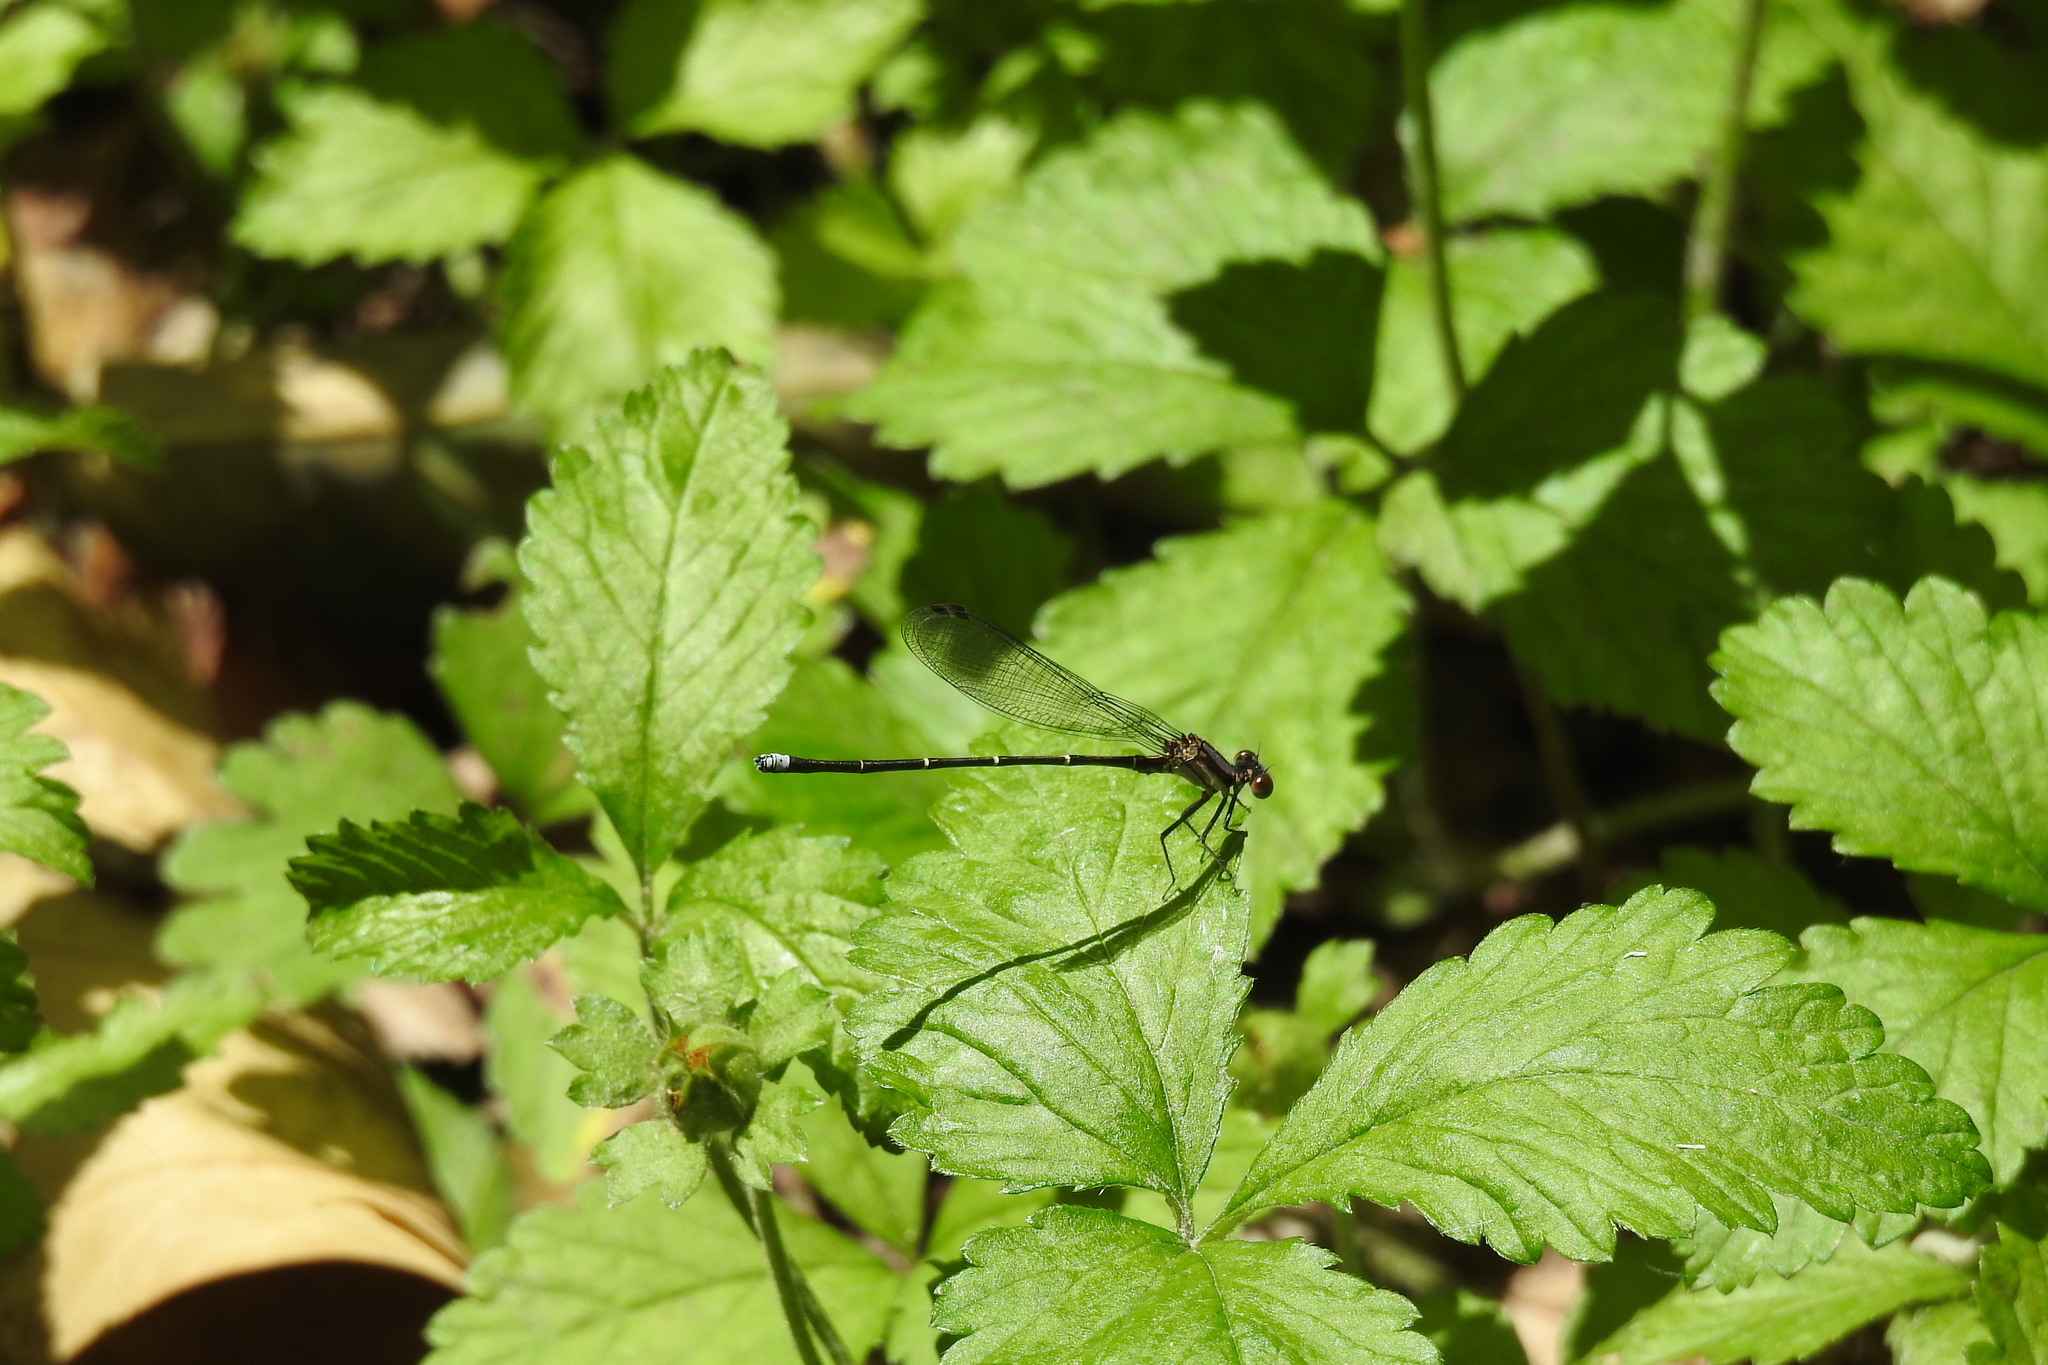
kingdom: Animalia
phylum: Arthropoda
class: Insecta
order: Odonata
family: Coenagrionidae
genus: Argia
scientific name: Argia tibialis
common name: Blue-tipped dancer
